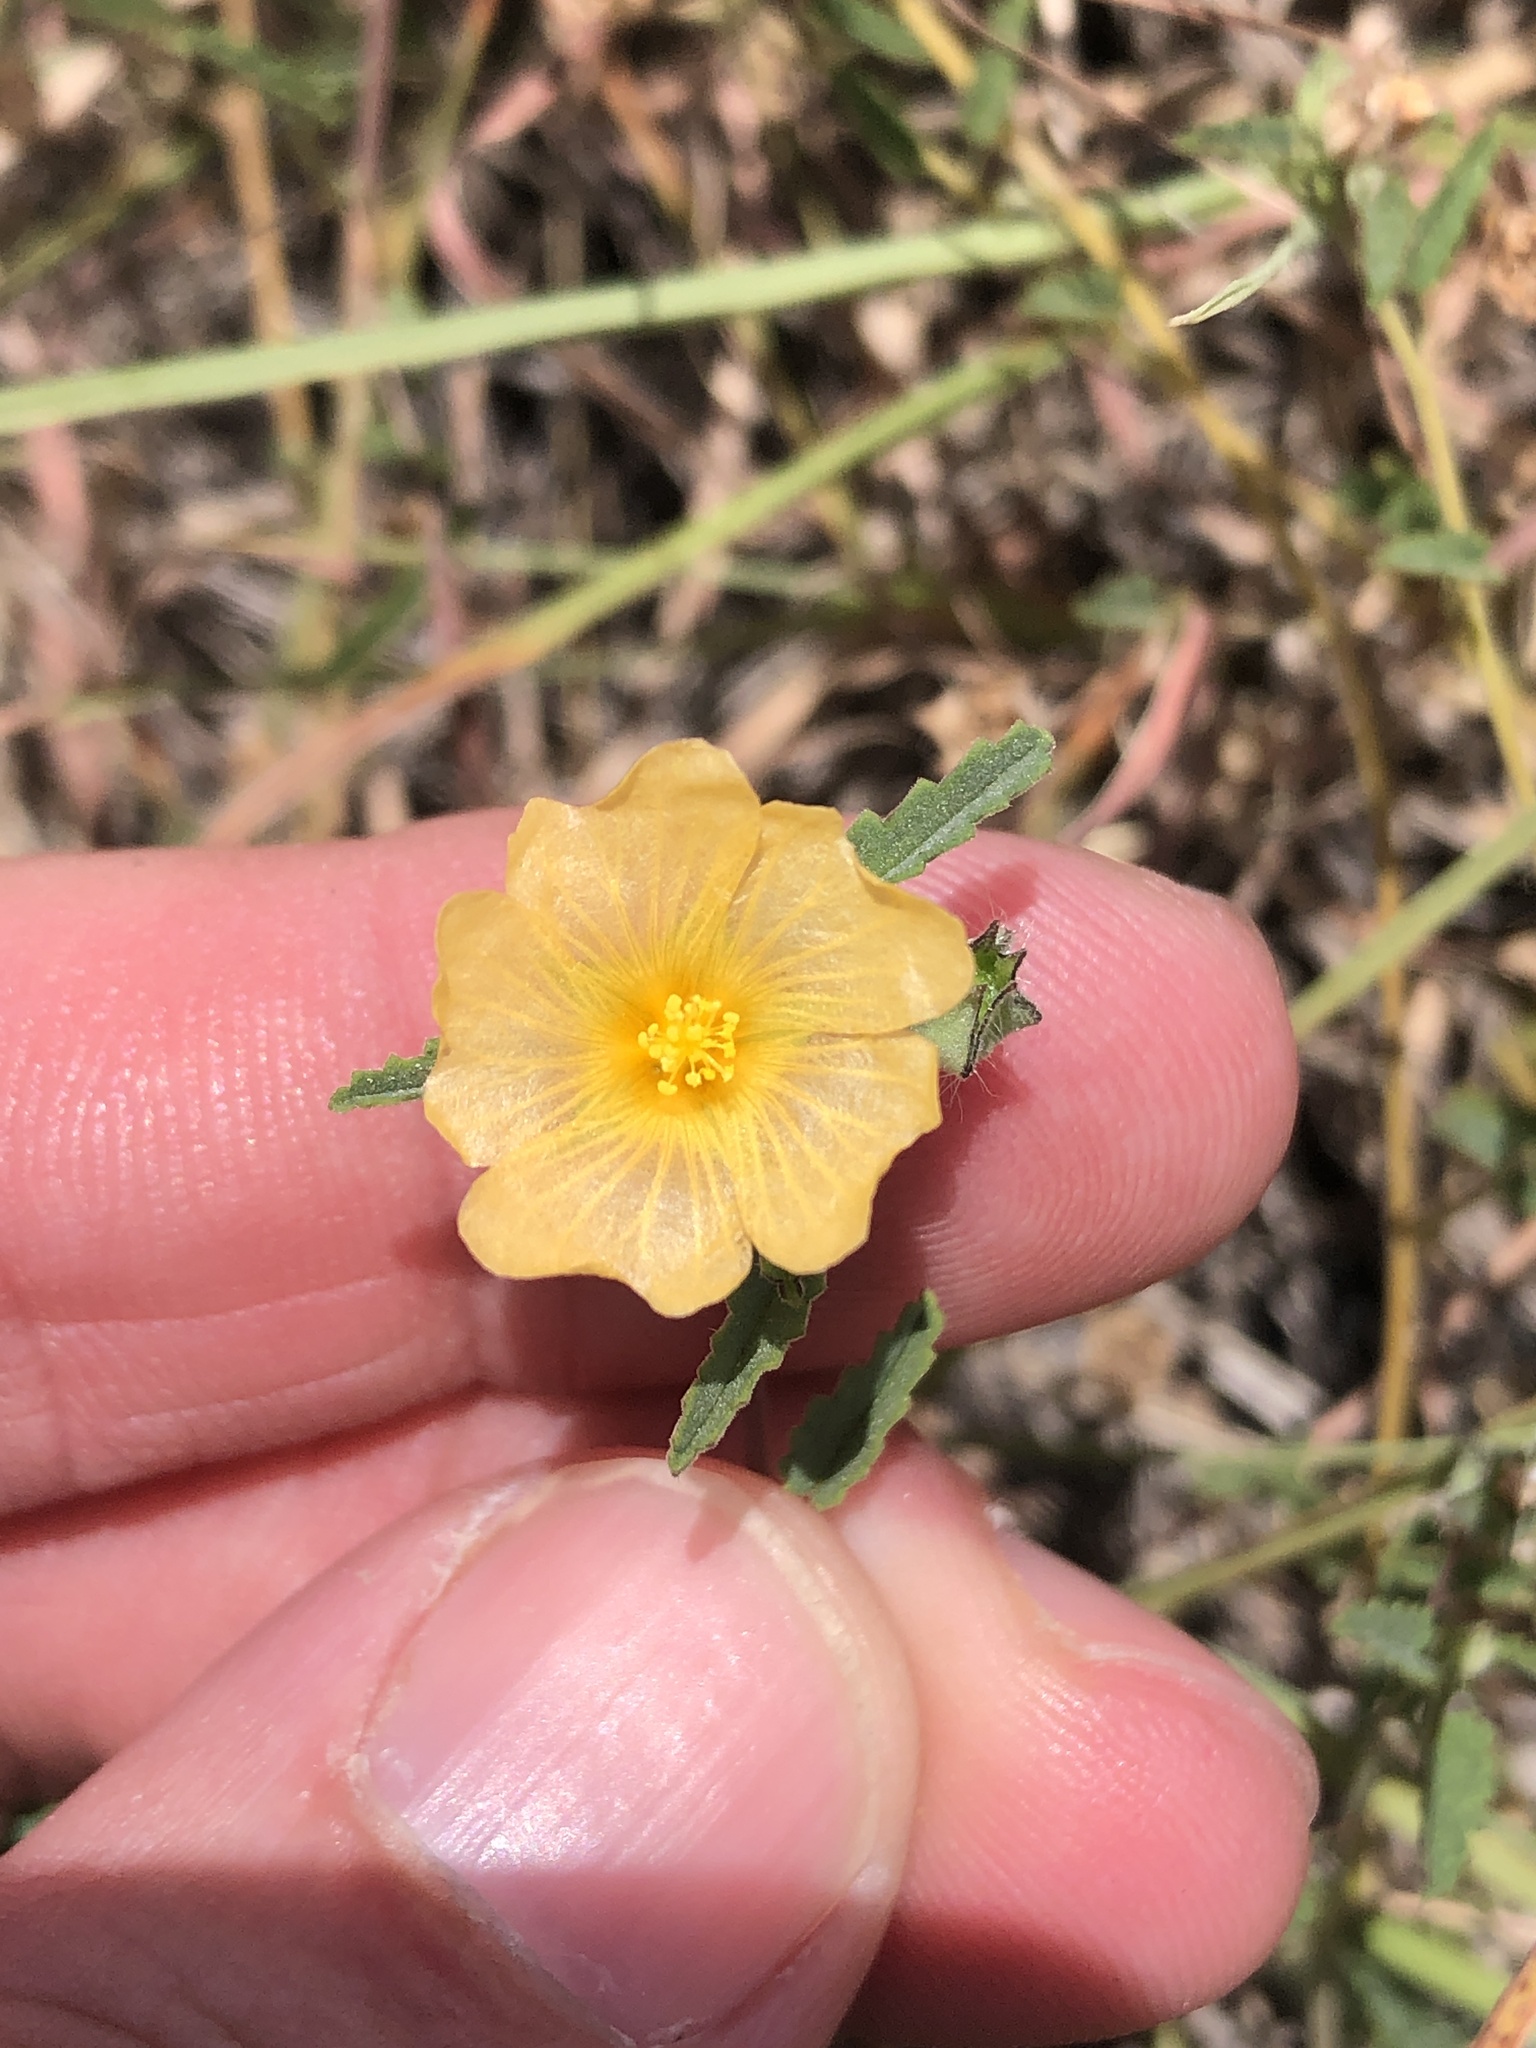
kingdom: Plantae
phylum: Tracheophyta
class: Magnoliopsida
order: Malvales
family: Malvaceae
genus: Sida
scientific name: Sida abutilifolia
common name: Spreading fanpetals
